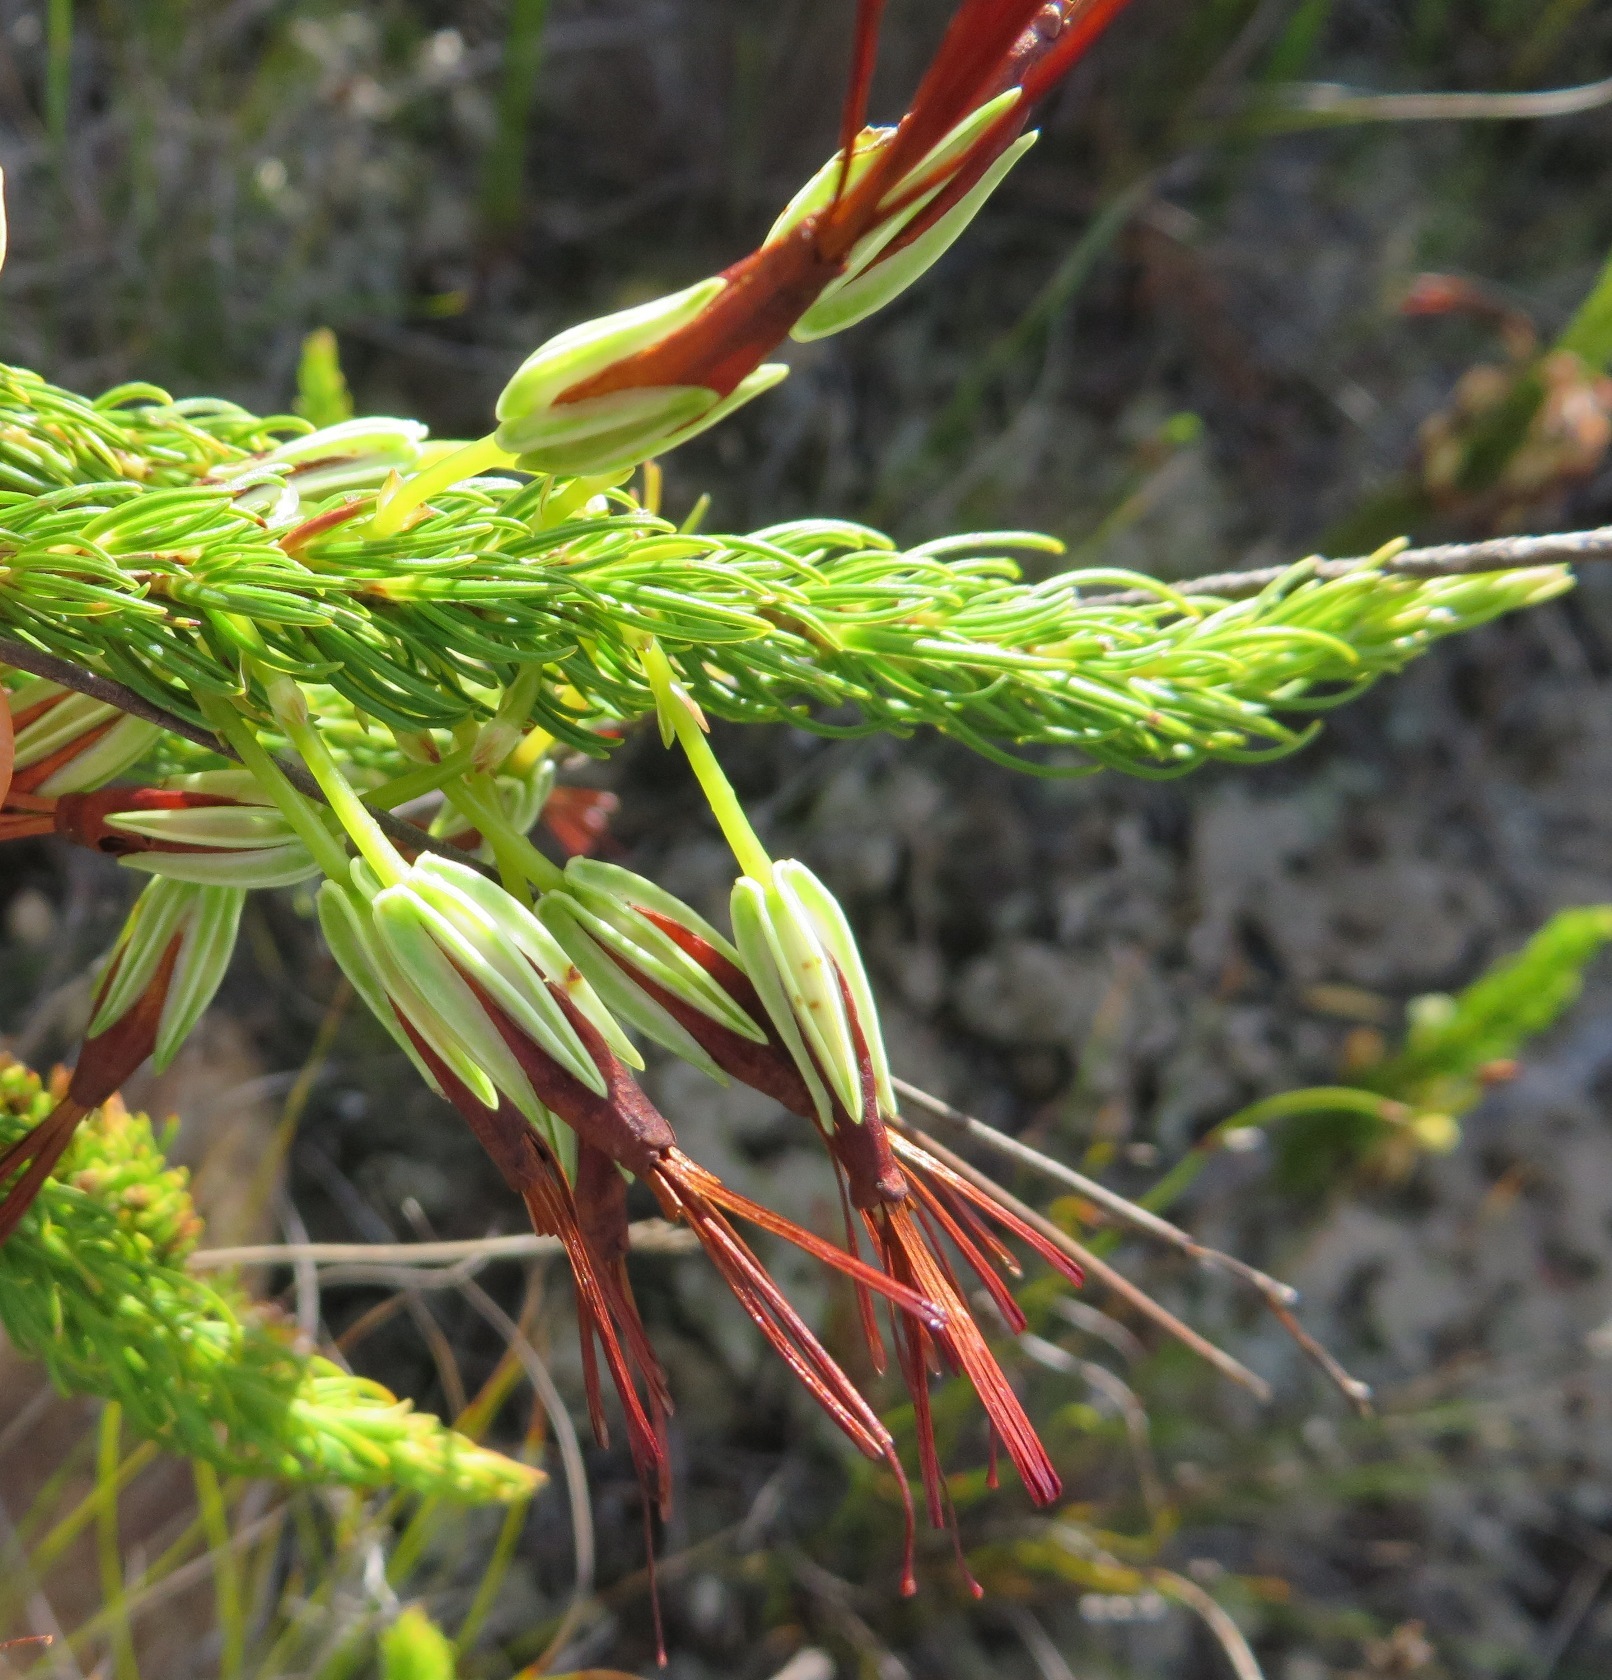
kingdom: Plantae
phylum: Tracheophyta
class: Magnoliopsida
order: Ericales
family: Ericaceae
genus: Erica
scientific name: Erica plukenetii
